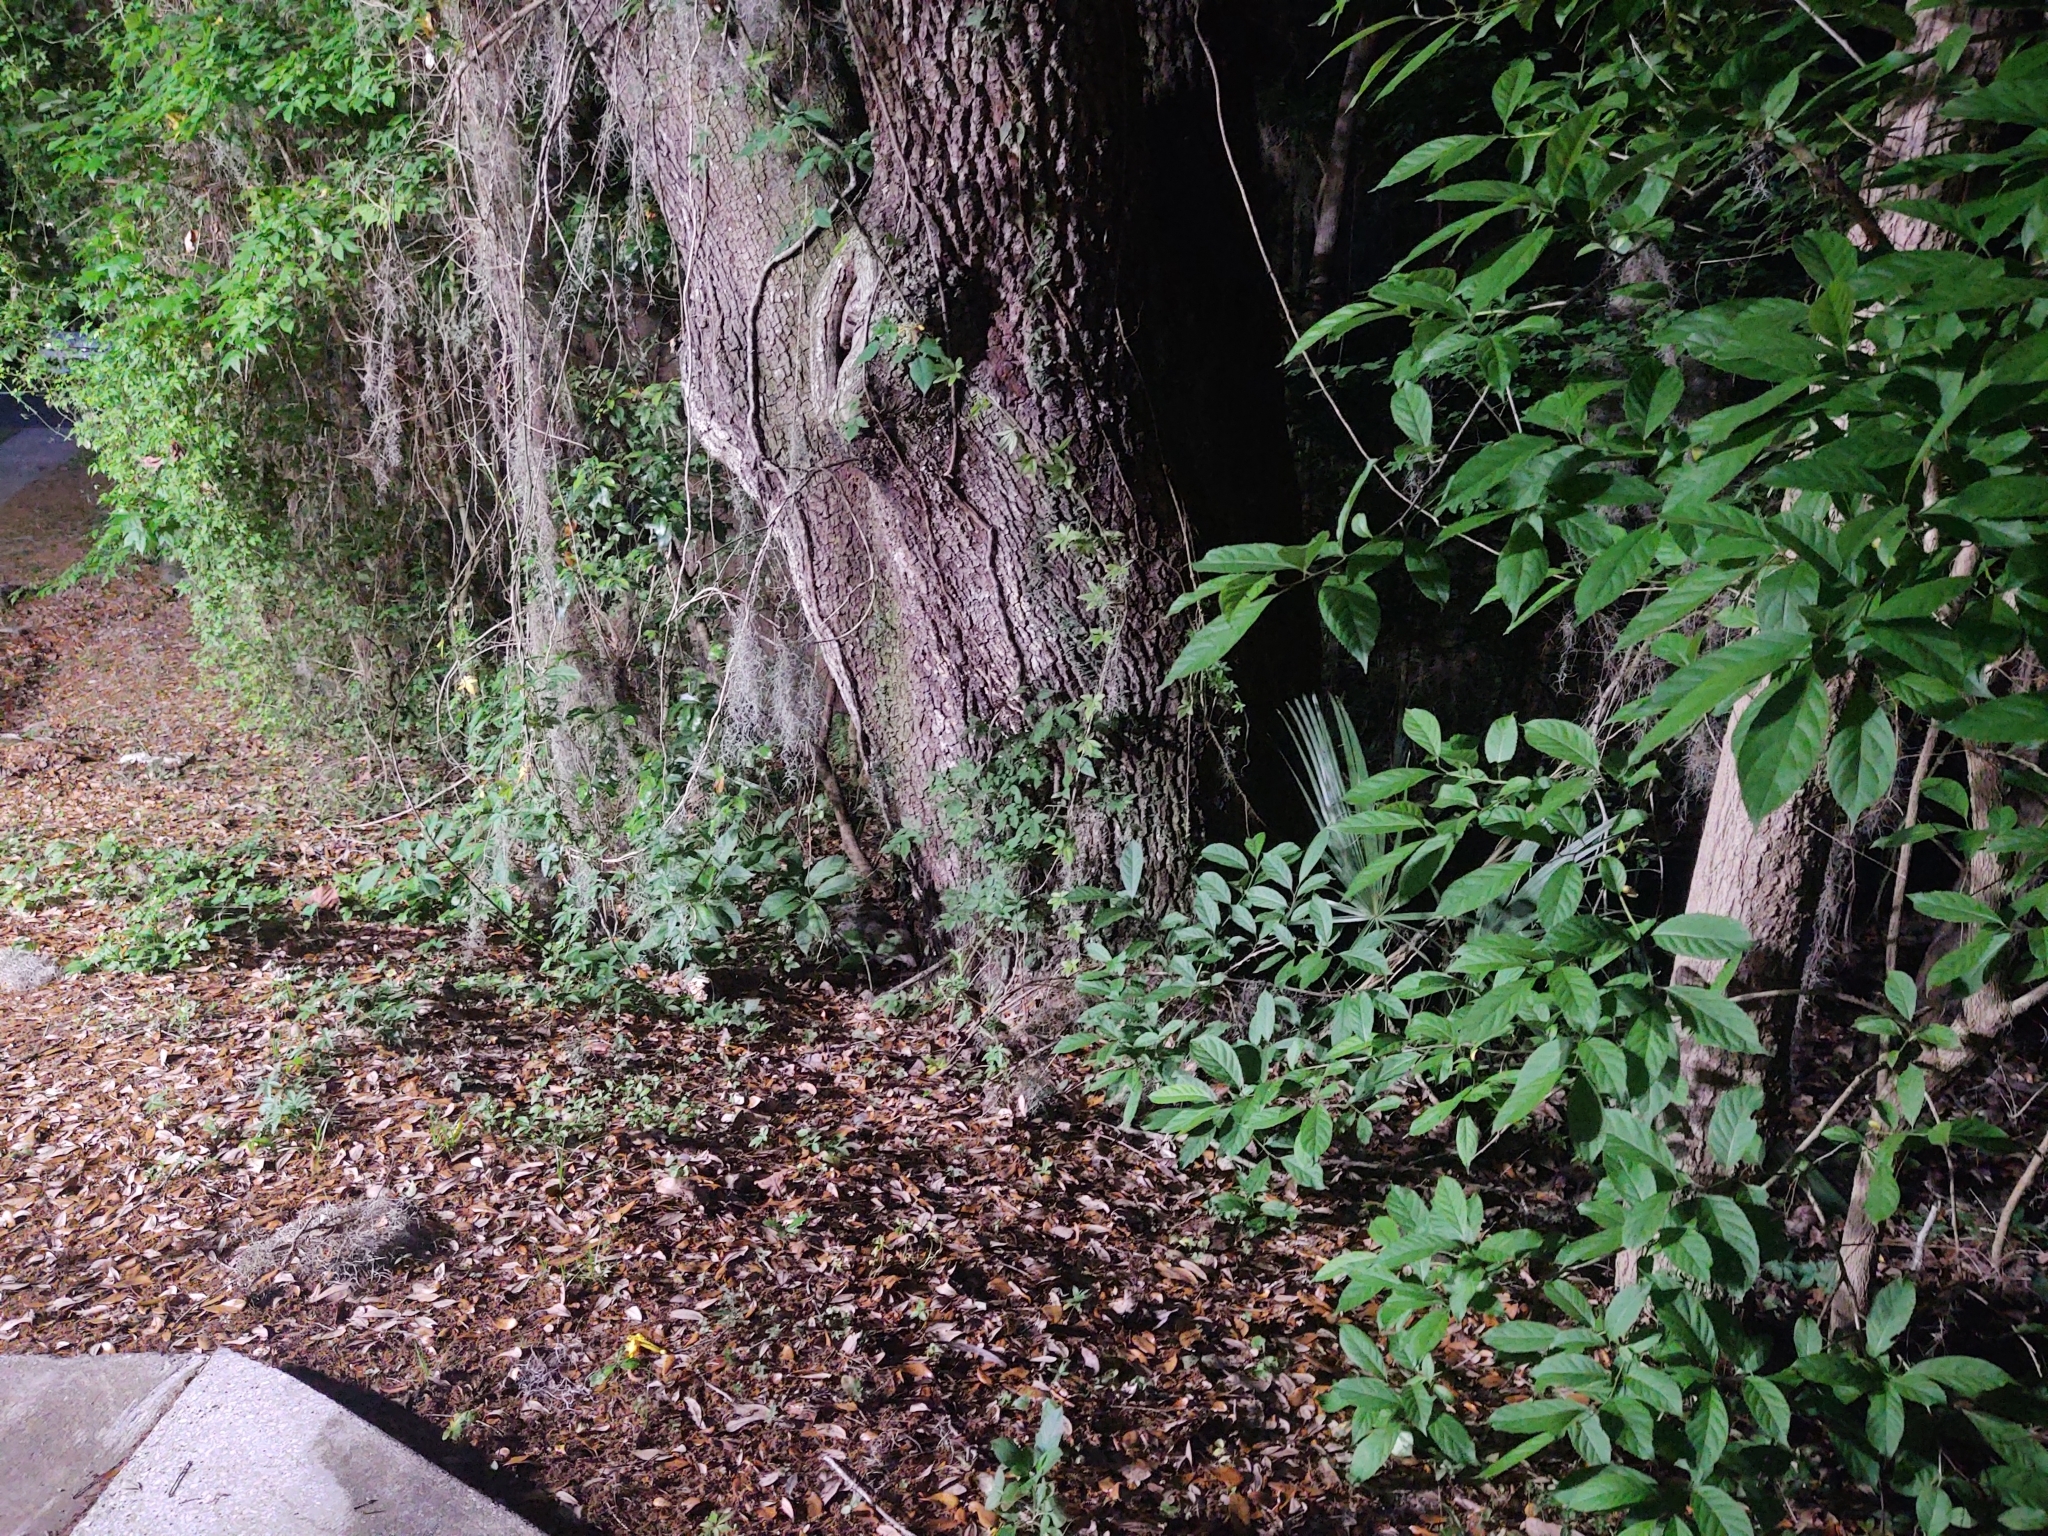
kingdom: Animalia
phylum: Chordata
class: Mammalia
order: Didelphimorphia
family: Didelphidae
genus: Didelphis
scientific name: Didelphis virginiana
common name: Virginia opossum
